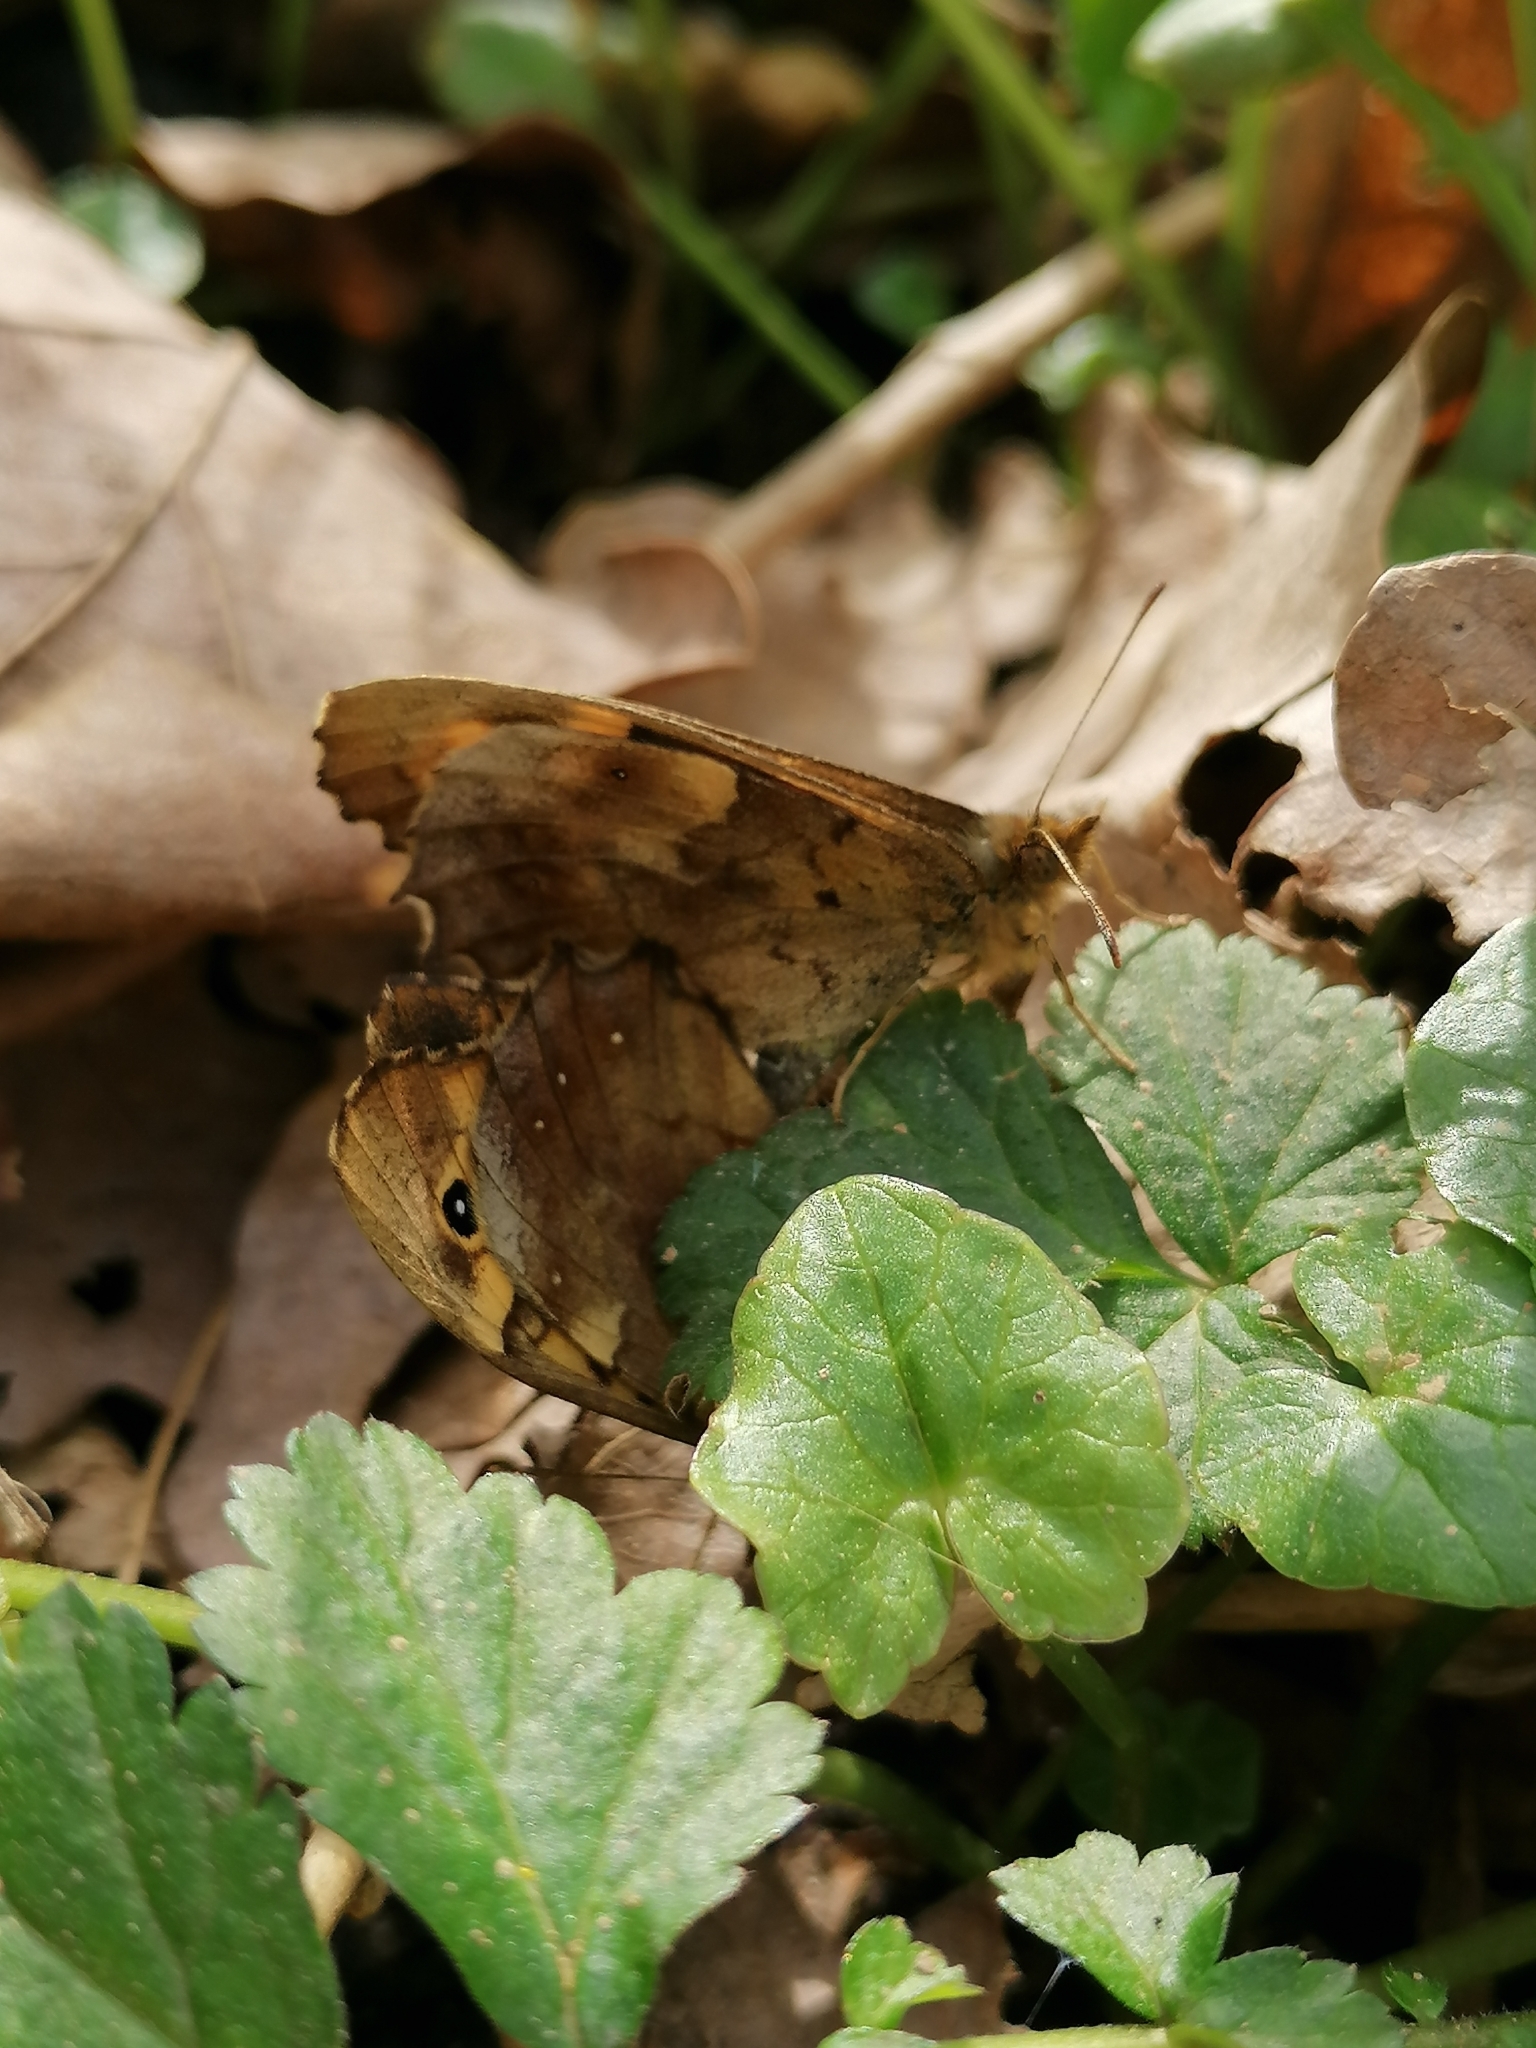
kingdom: Animalia
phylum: Arthropoda
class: Insecta
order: Lepidoptera
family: Nymphalidae
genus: Pararge
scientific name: Pararge aegeria
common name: Speckled wood
